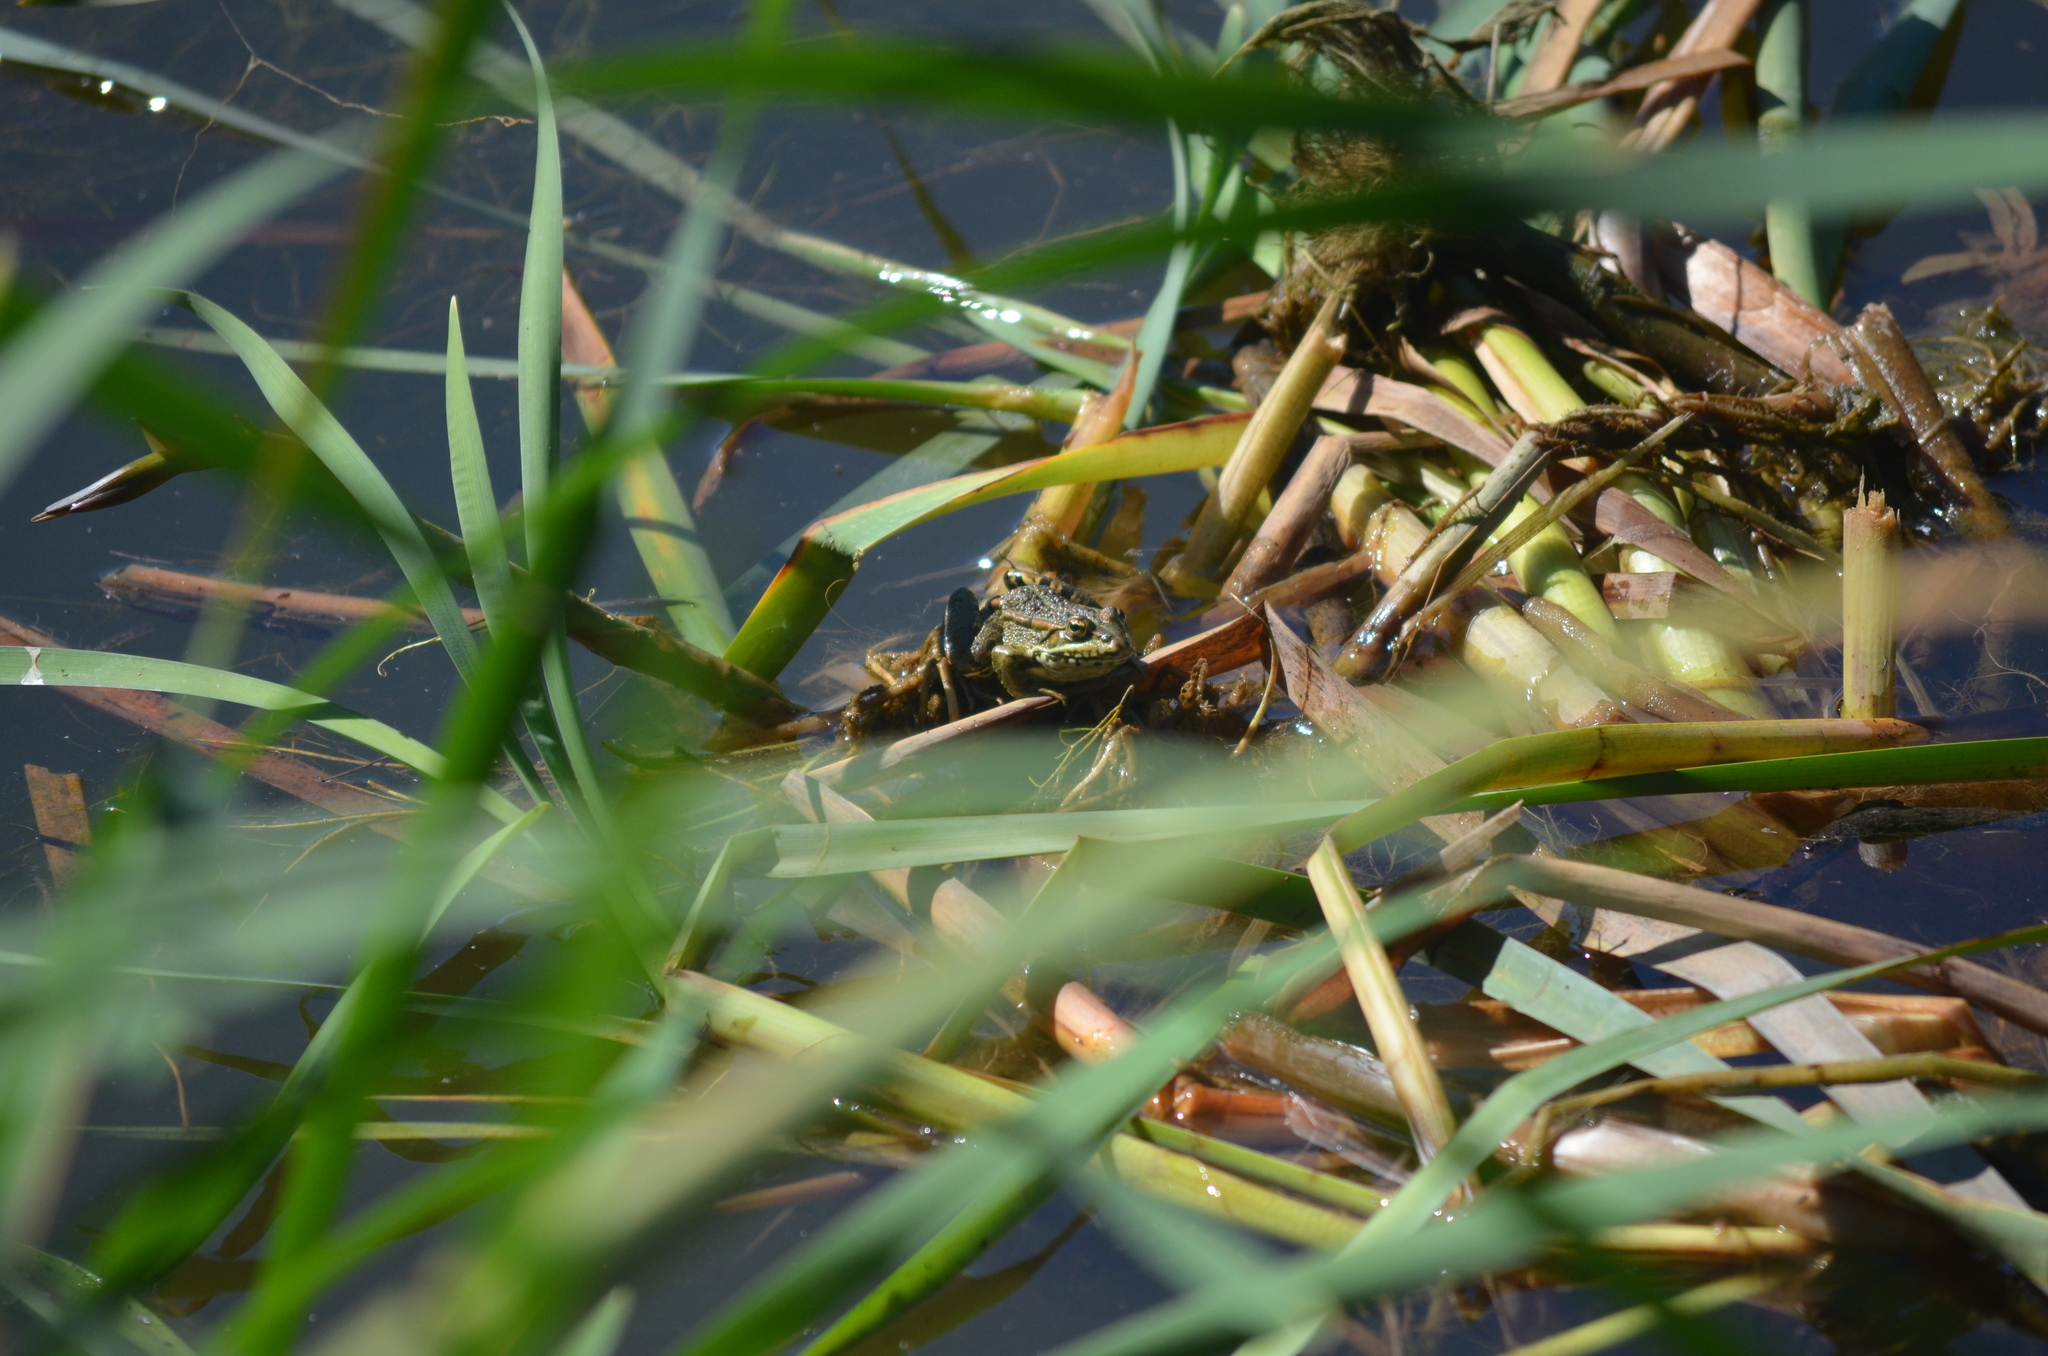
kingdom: Animalia
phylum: Chordata
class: Amphibia
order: Anura
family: Ranidae
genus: Pelophylax
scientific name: Pelophylax perezi
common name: Perez's frog
